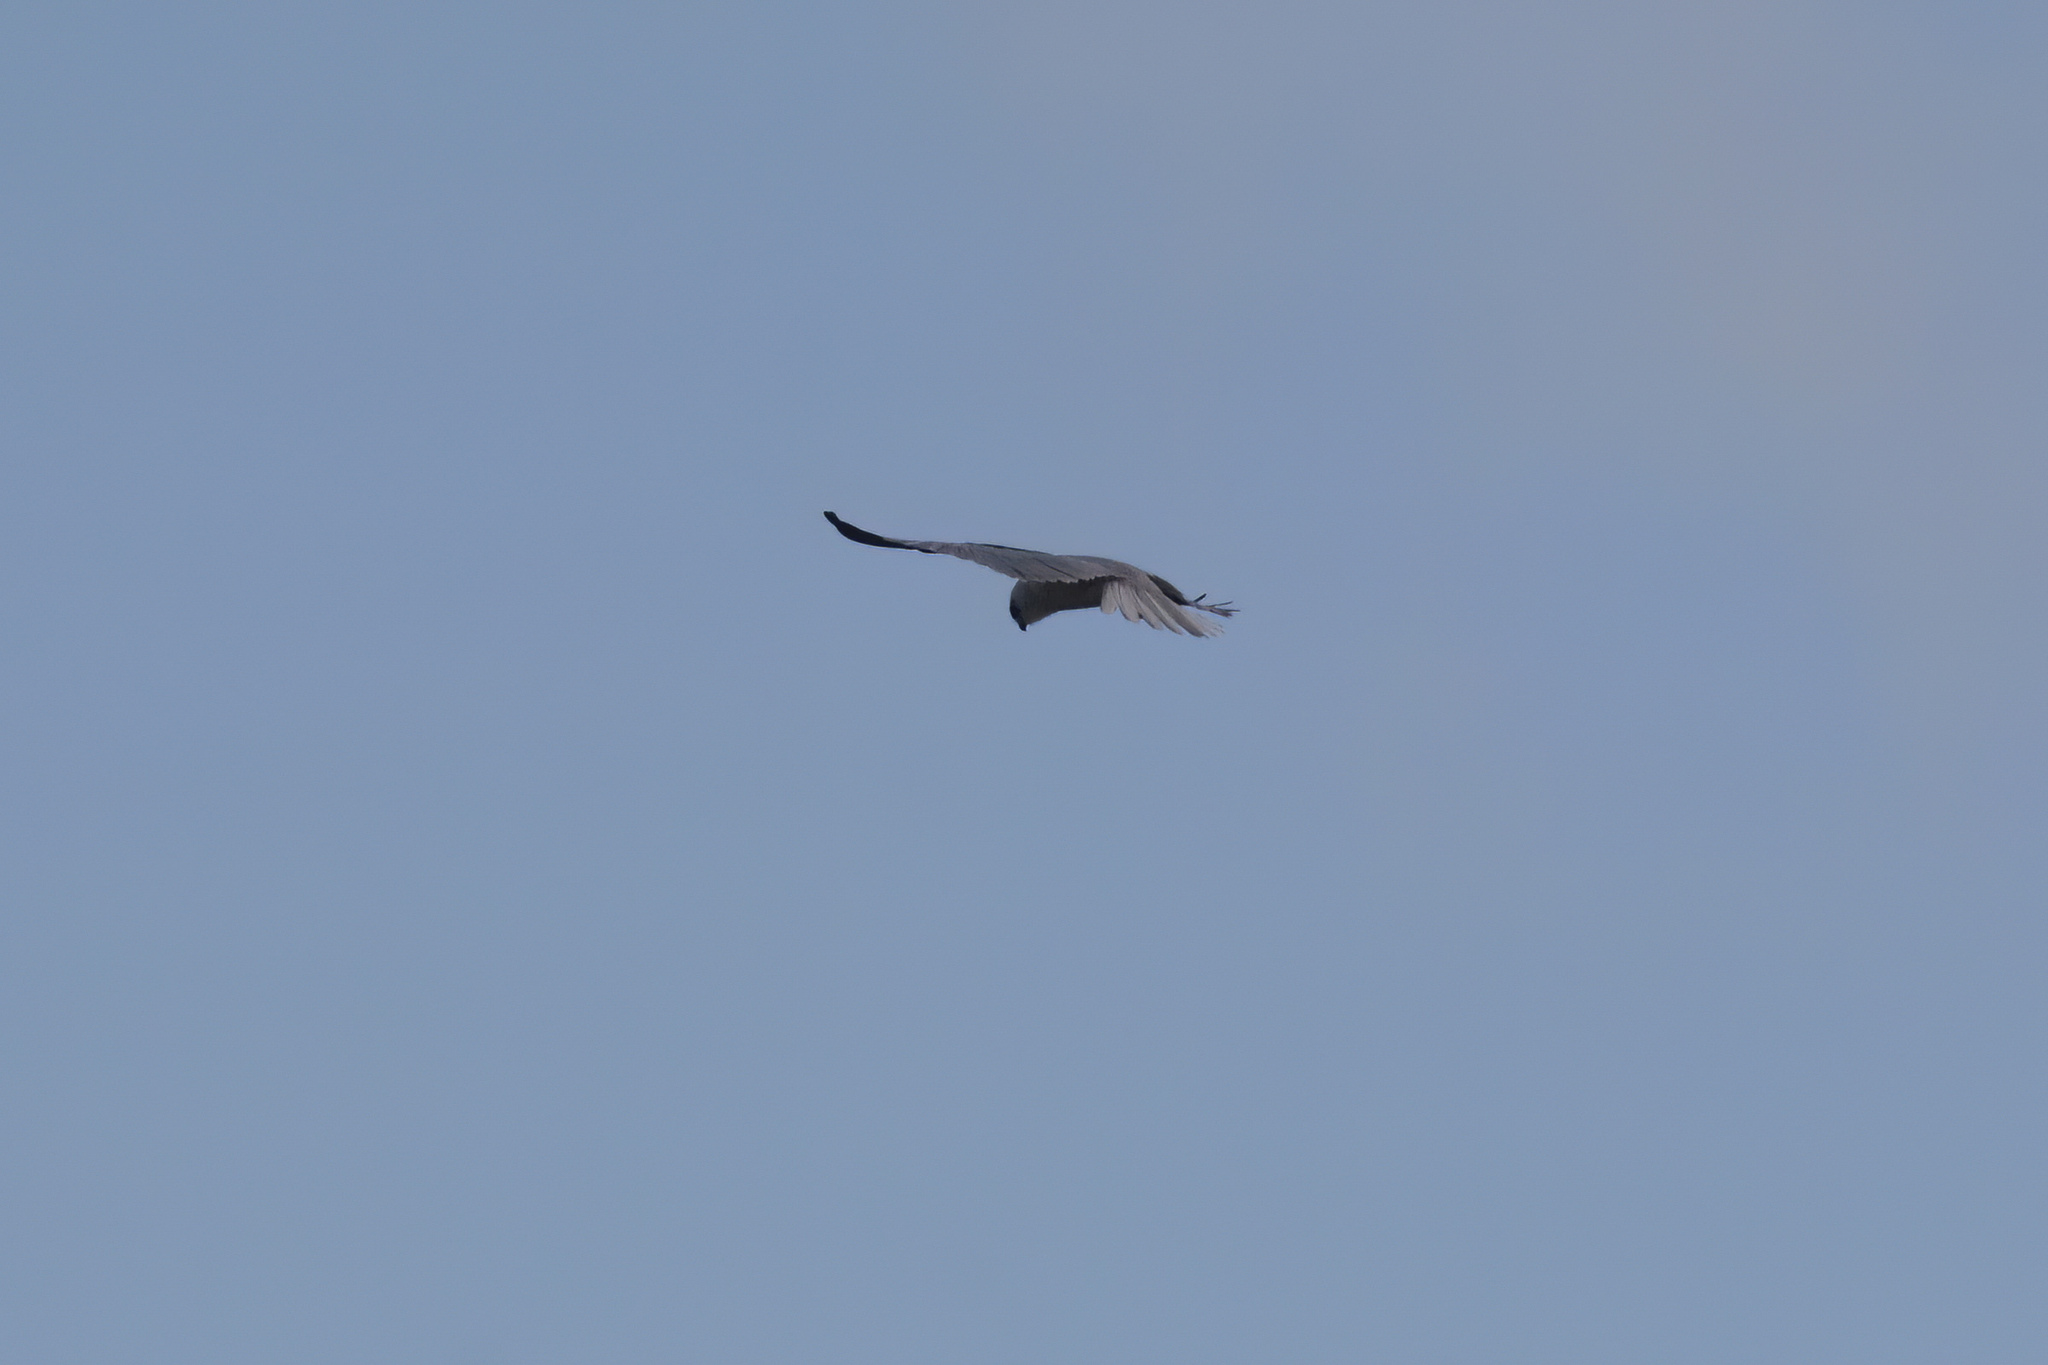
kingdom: Animalia
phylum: Chordata
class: Aves
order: Accipitriformes
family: Accipitridae
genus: Elanus
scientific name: Elanus axillaris
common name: Black-shouldered kite
